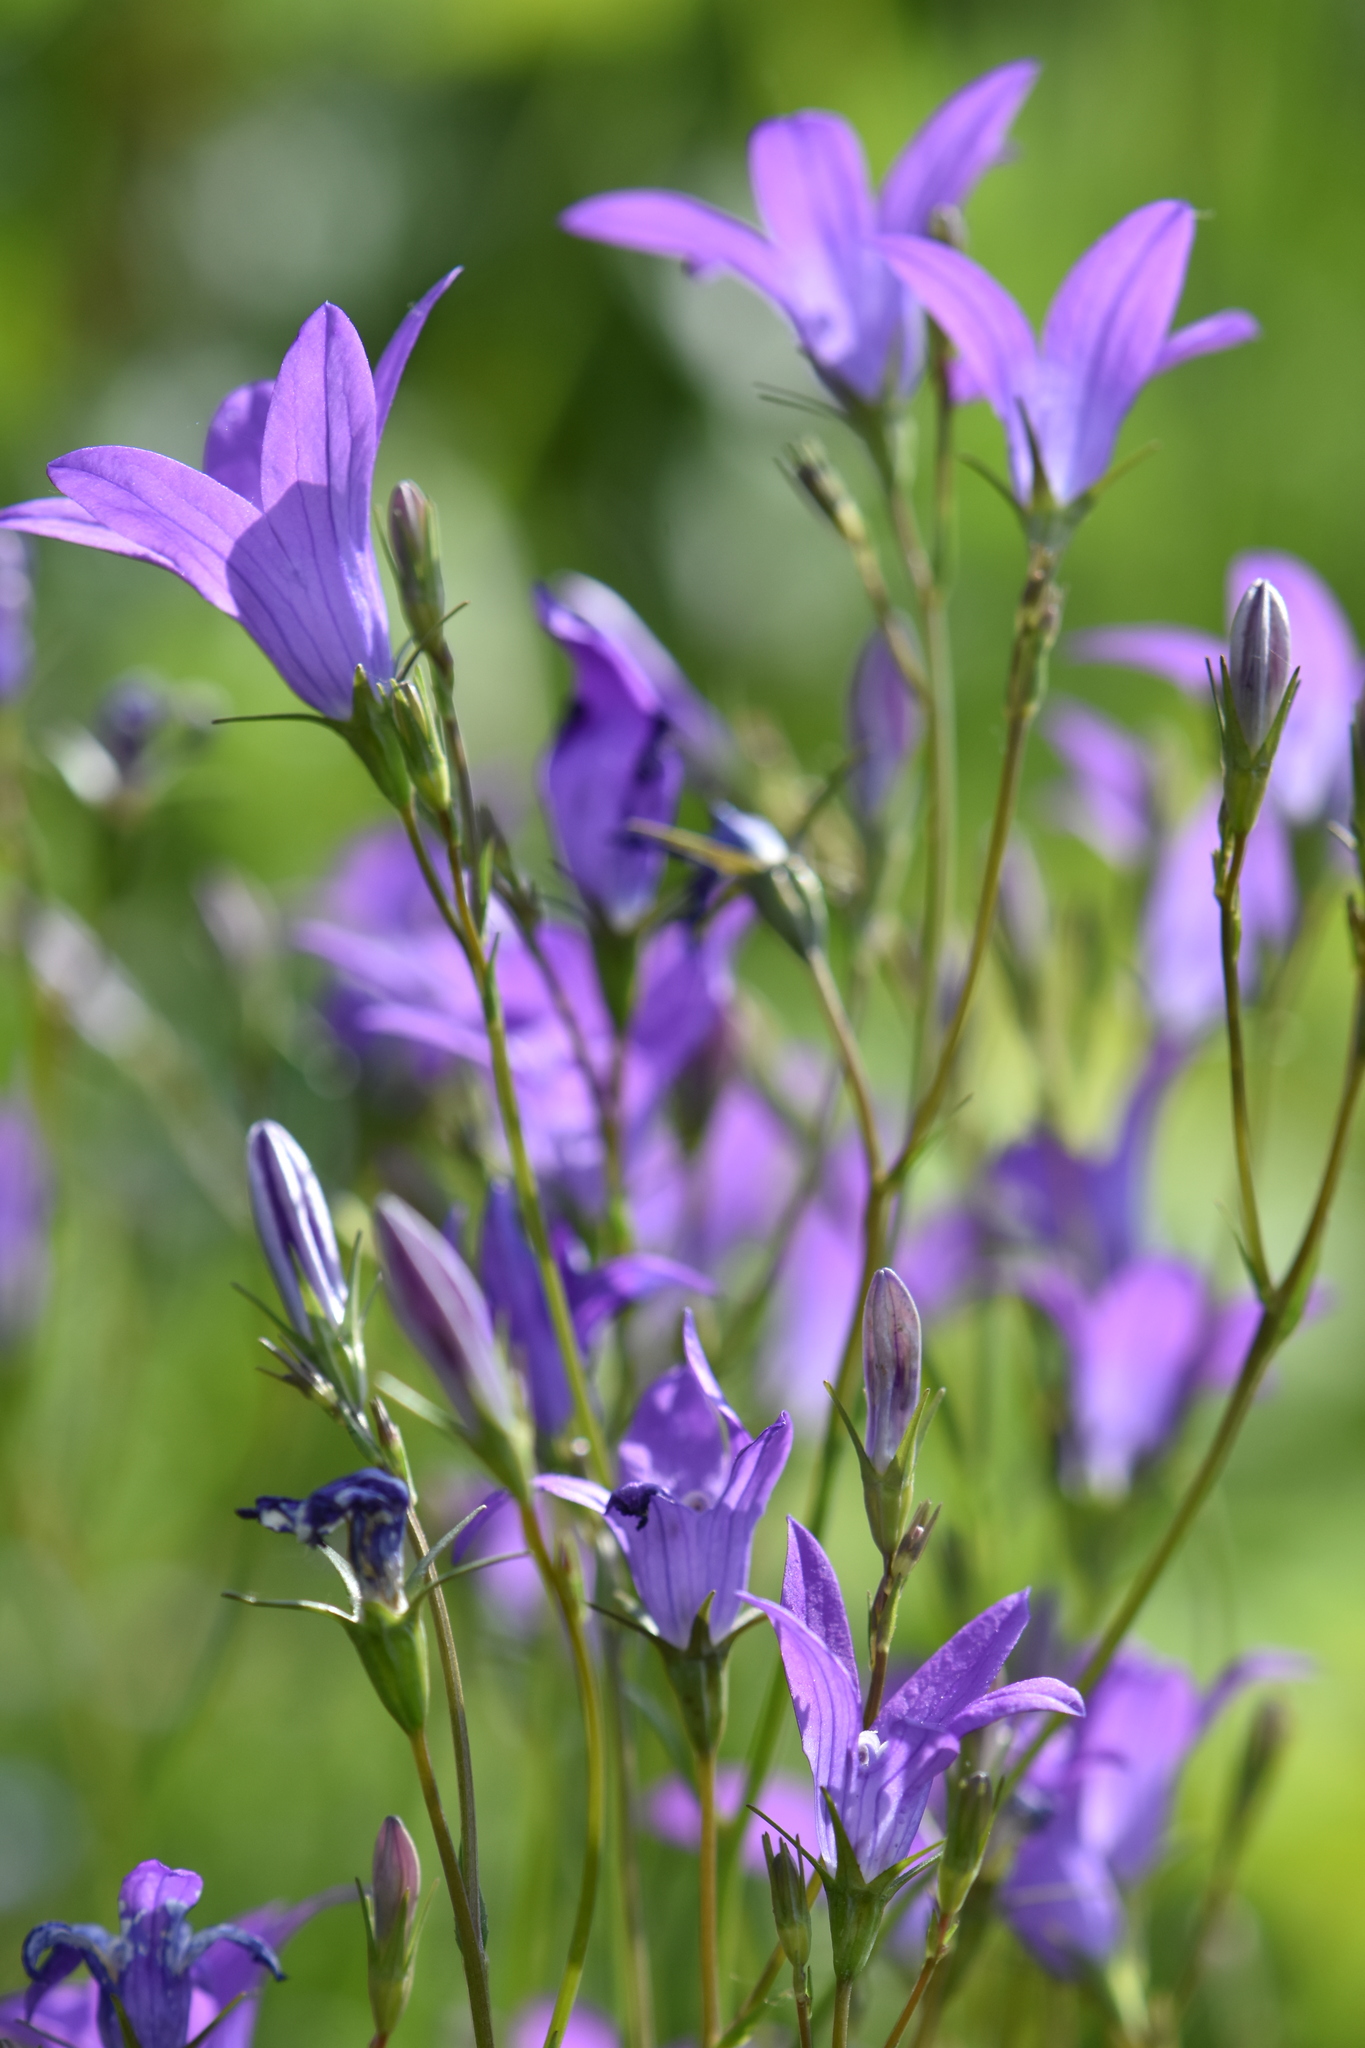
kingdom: Plantae
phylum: Tracheophyta
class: Magnoliopsida
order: Asterales
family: Campanulaceae
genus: Campanula
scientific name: Campanula patula
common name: Spreading bellflower
